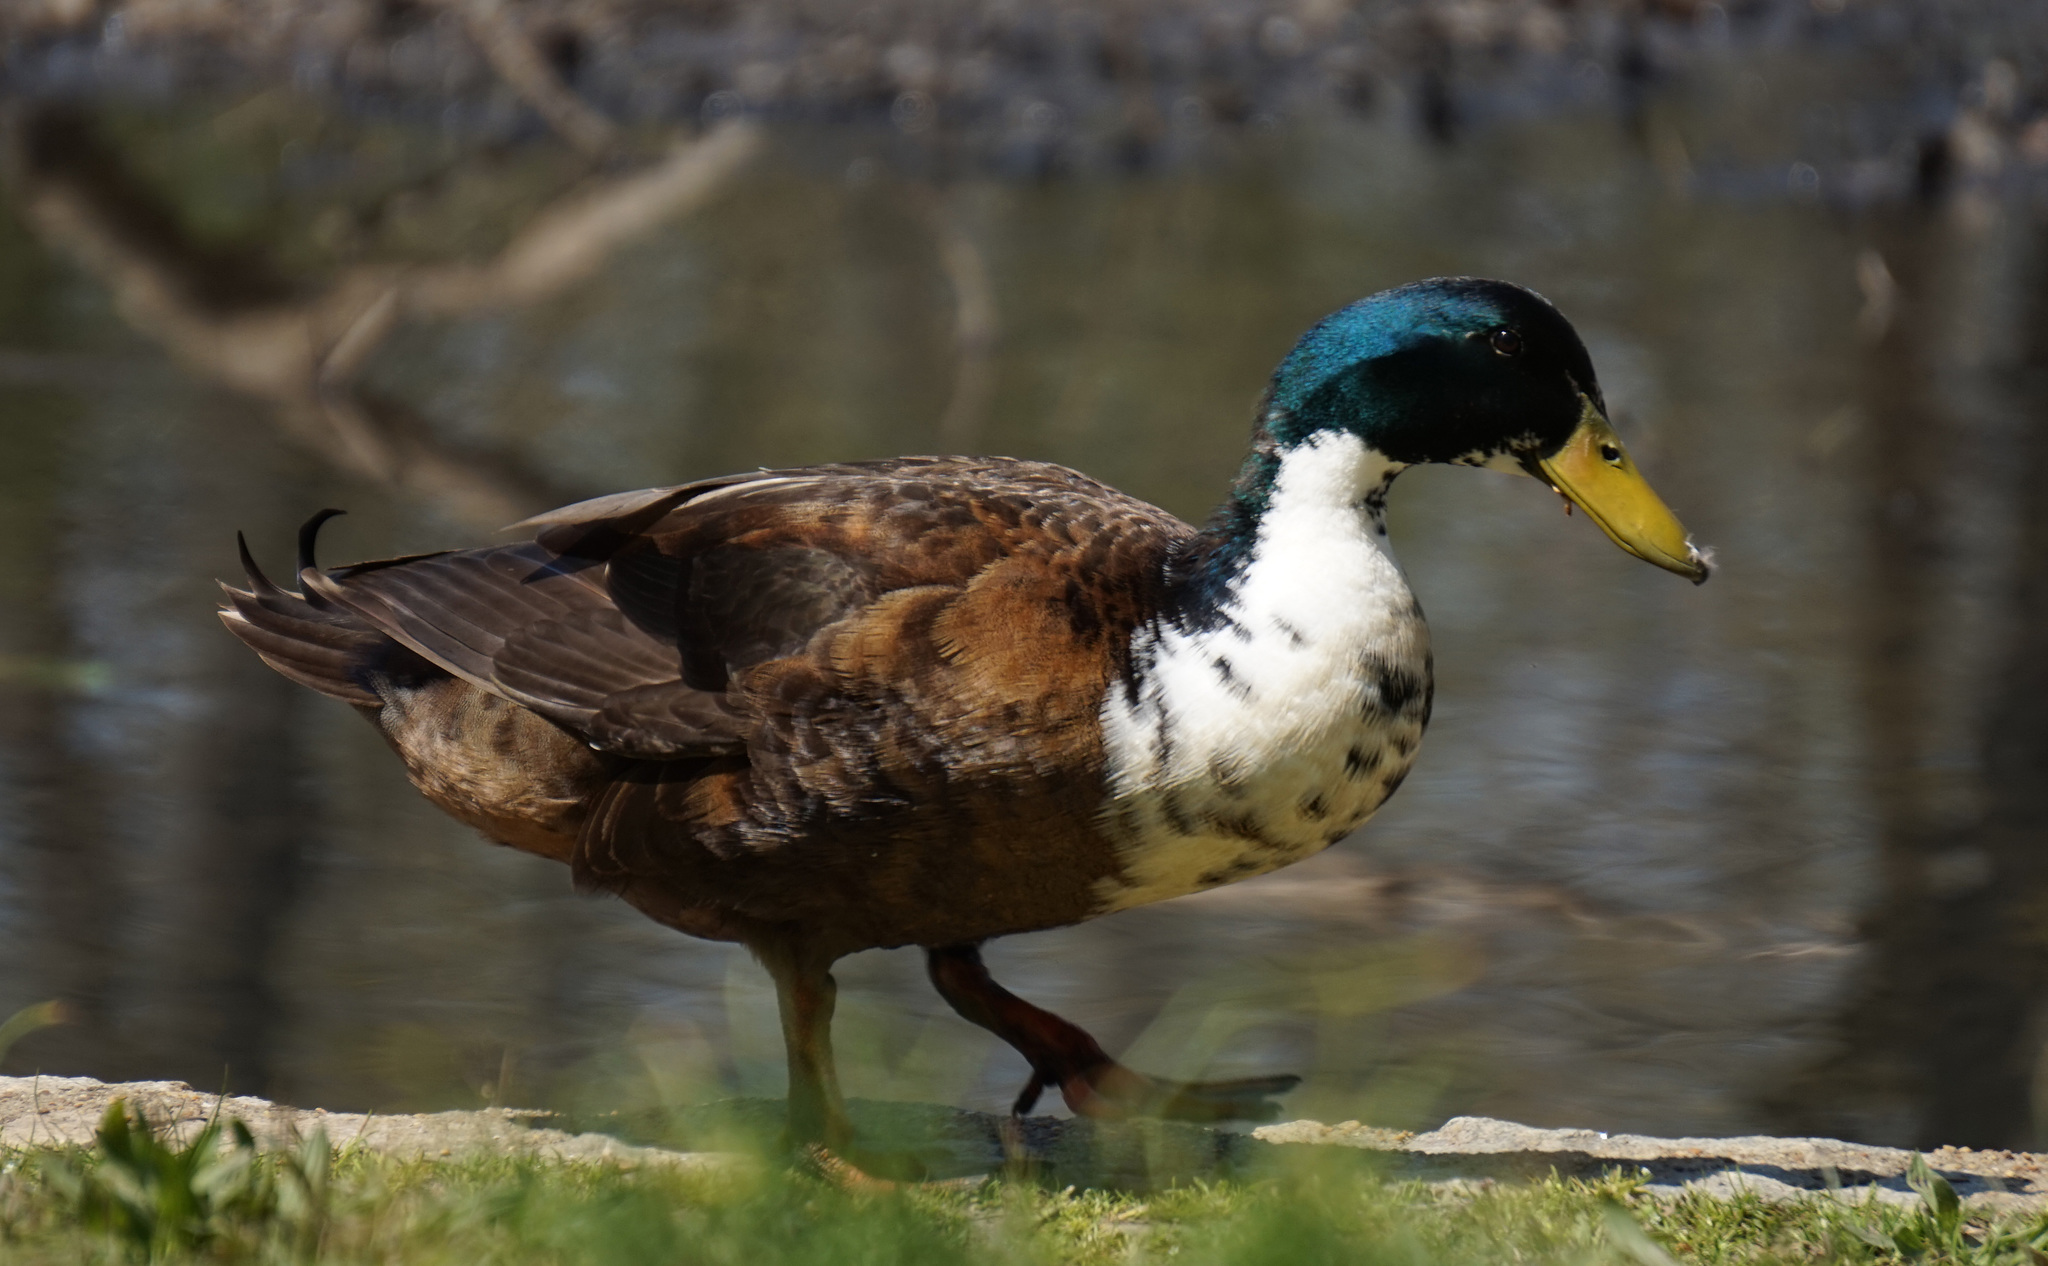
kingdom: Animalia
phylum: Chordata
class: Aves
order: Anseriformes
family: Anatidae
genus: Anas
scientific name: Anas platyrhynchos
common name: Mallard
